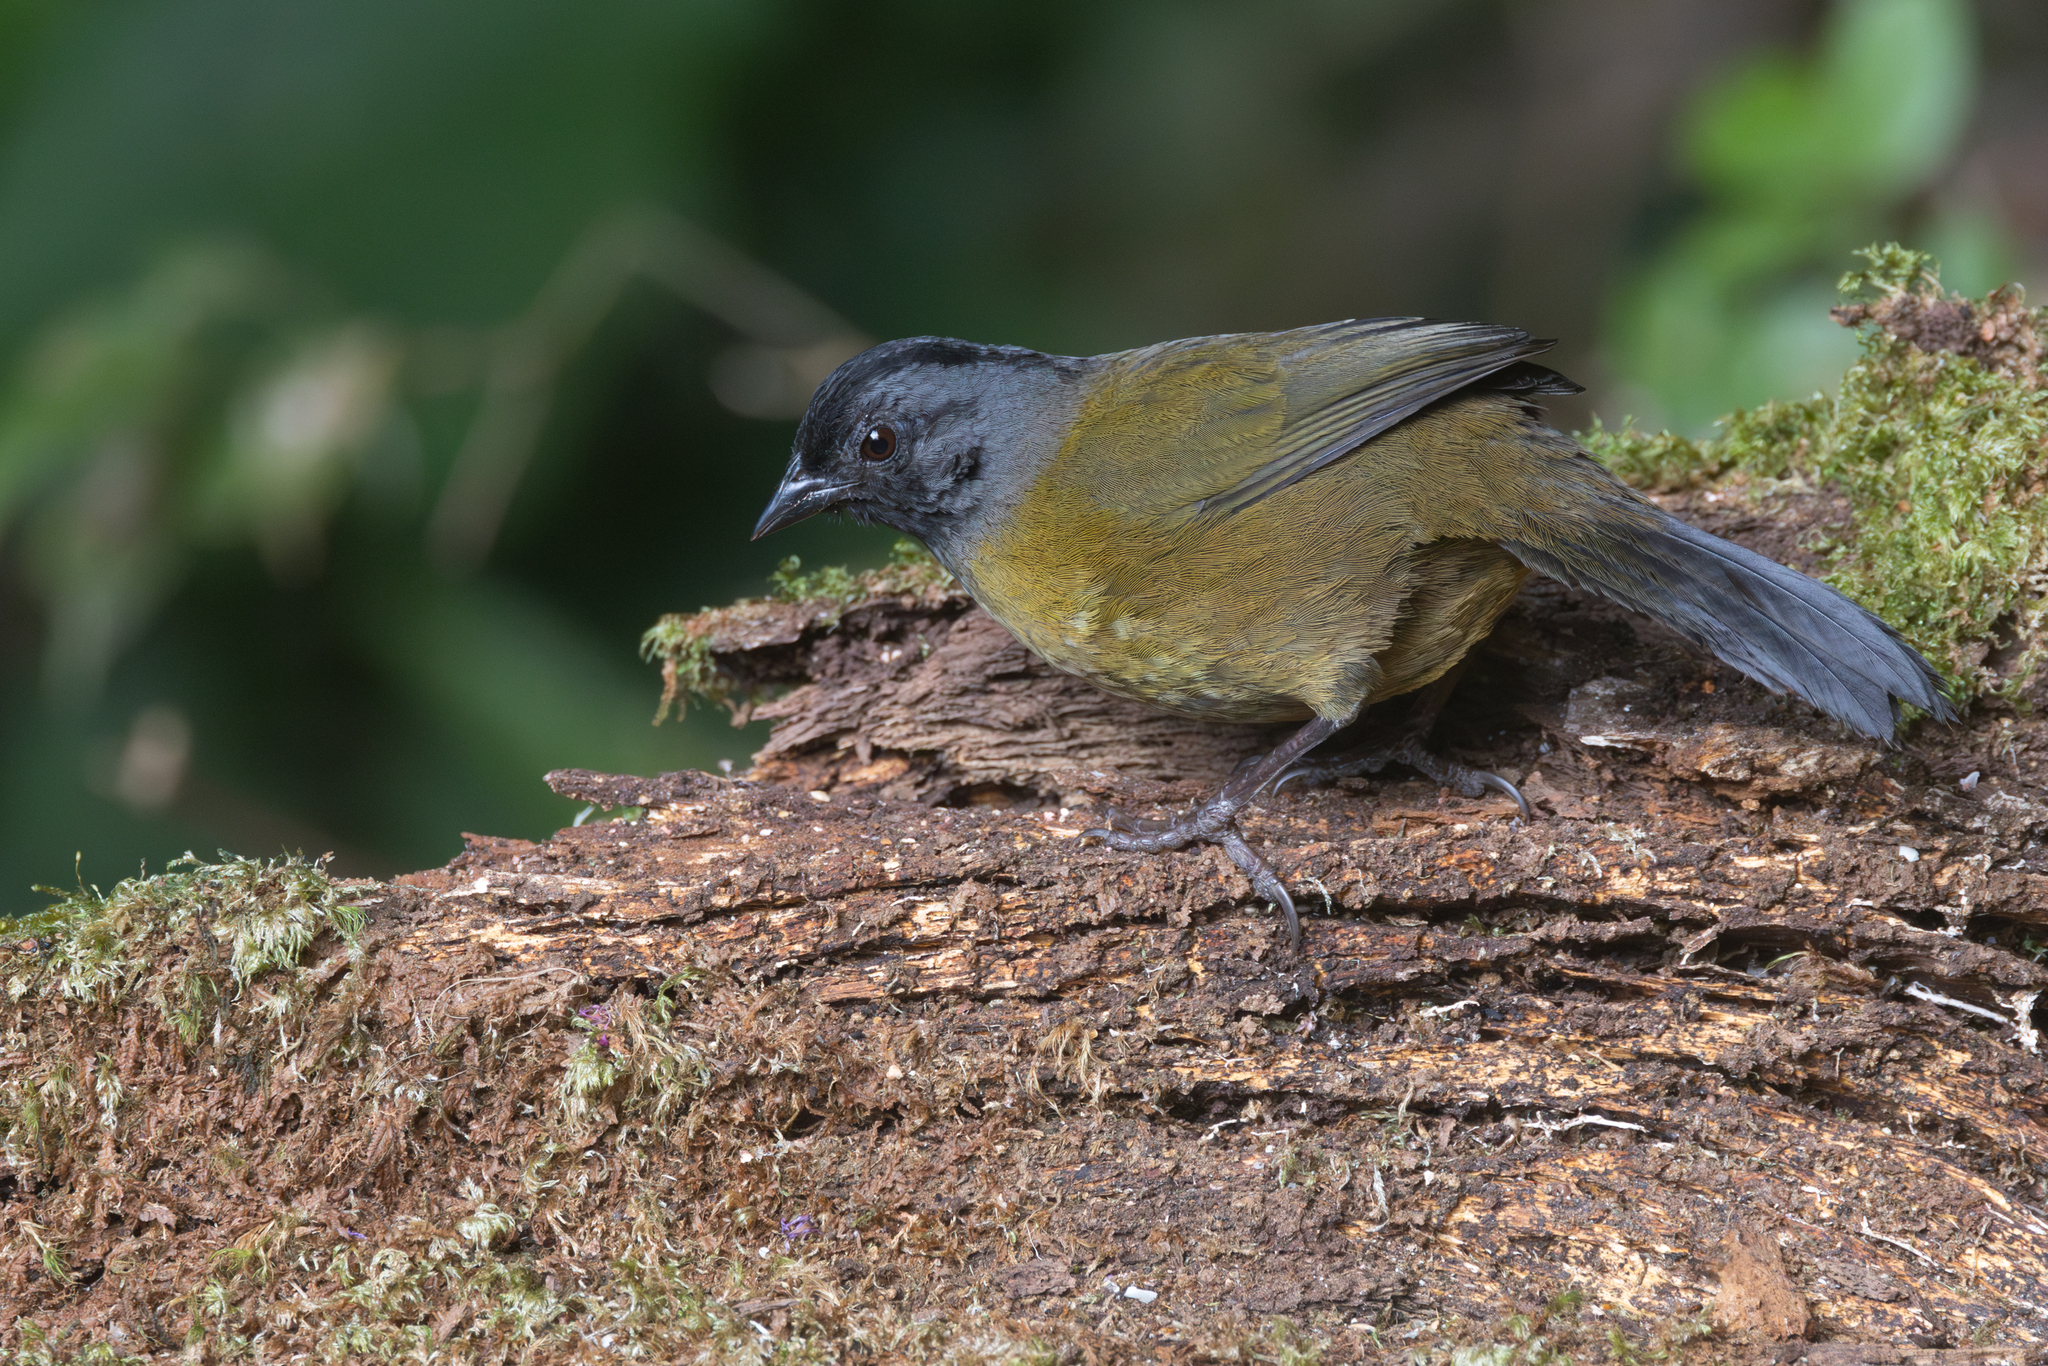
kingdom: Animalia
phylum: Chordata
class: Aves
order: Passeriformes
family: Passerellidae
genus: Pezopetes
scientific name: Pezopetes capitalis
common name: Large-footed finch
